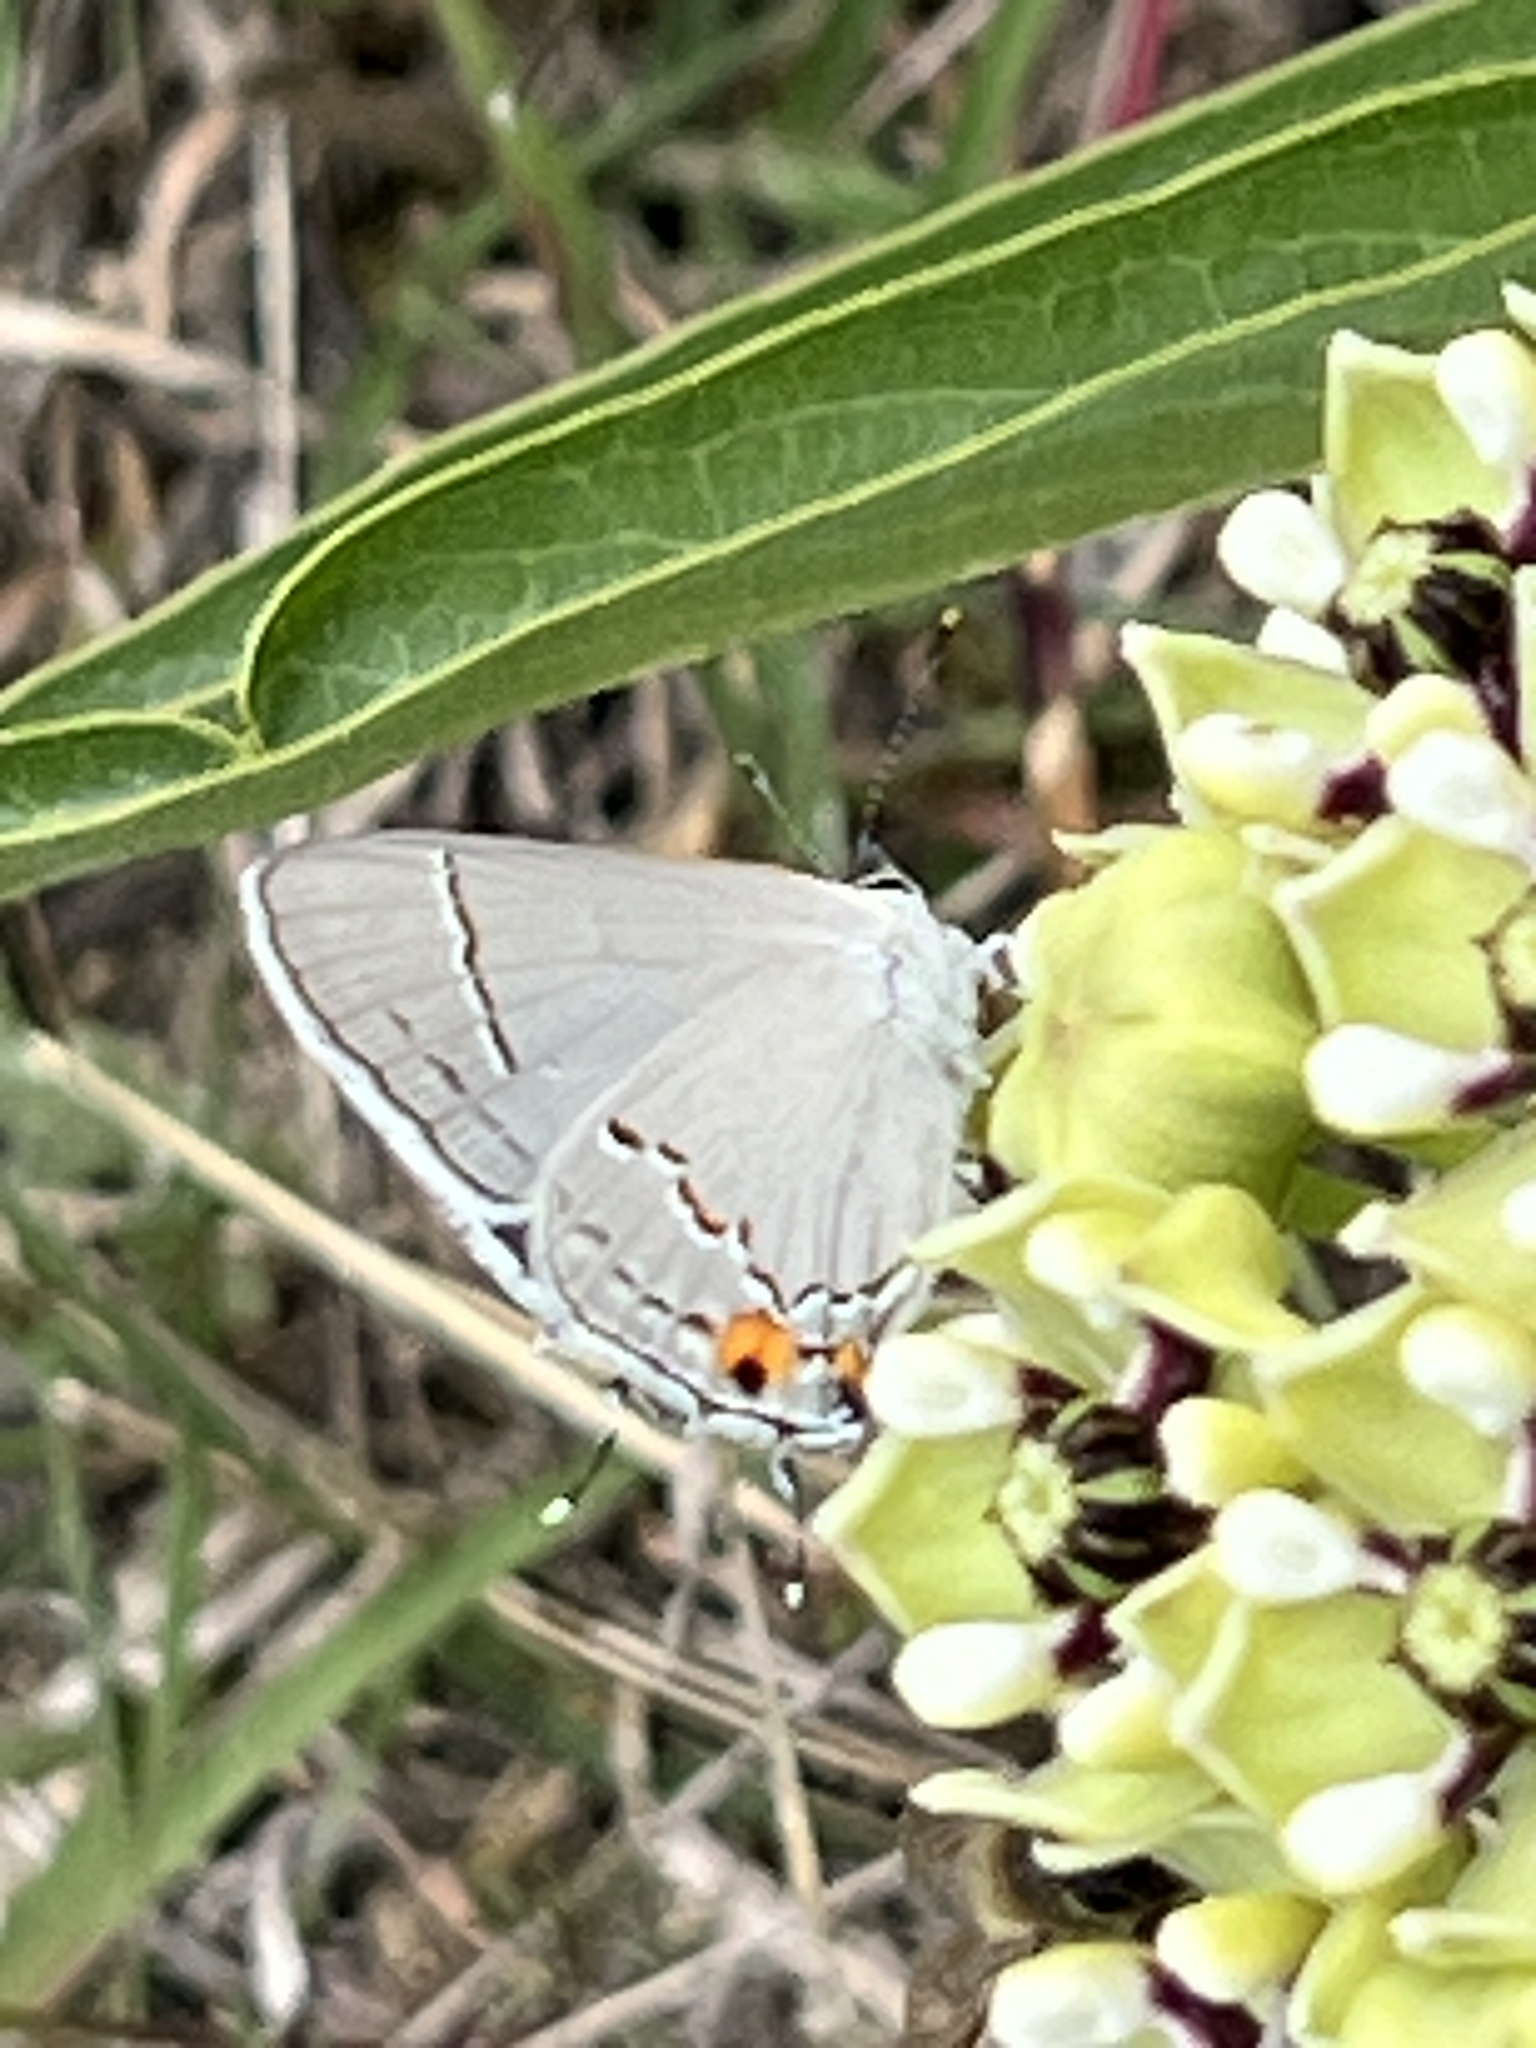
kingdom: Animalia
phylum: Arthropoda
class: Insecta
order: Lepidoptera
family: Lycaenidae
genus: Strymon
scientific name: Strymon melinus
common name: Gray hairstreak
